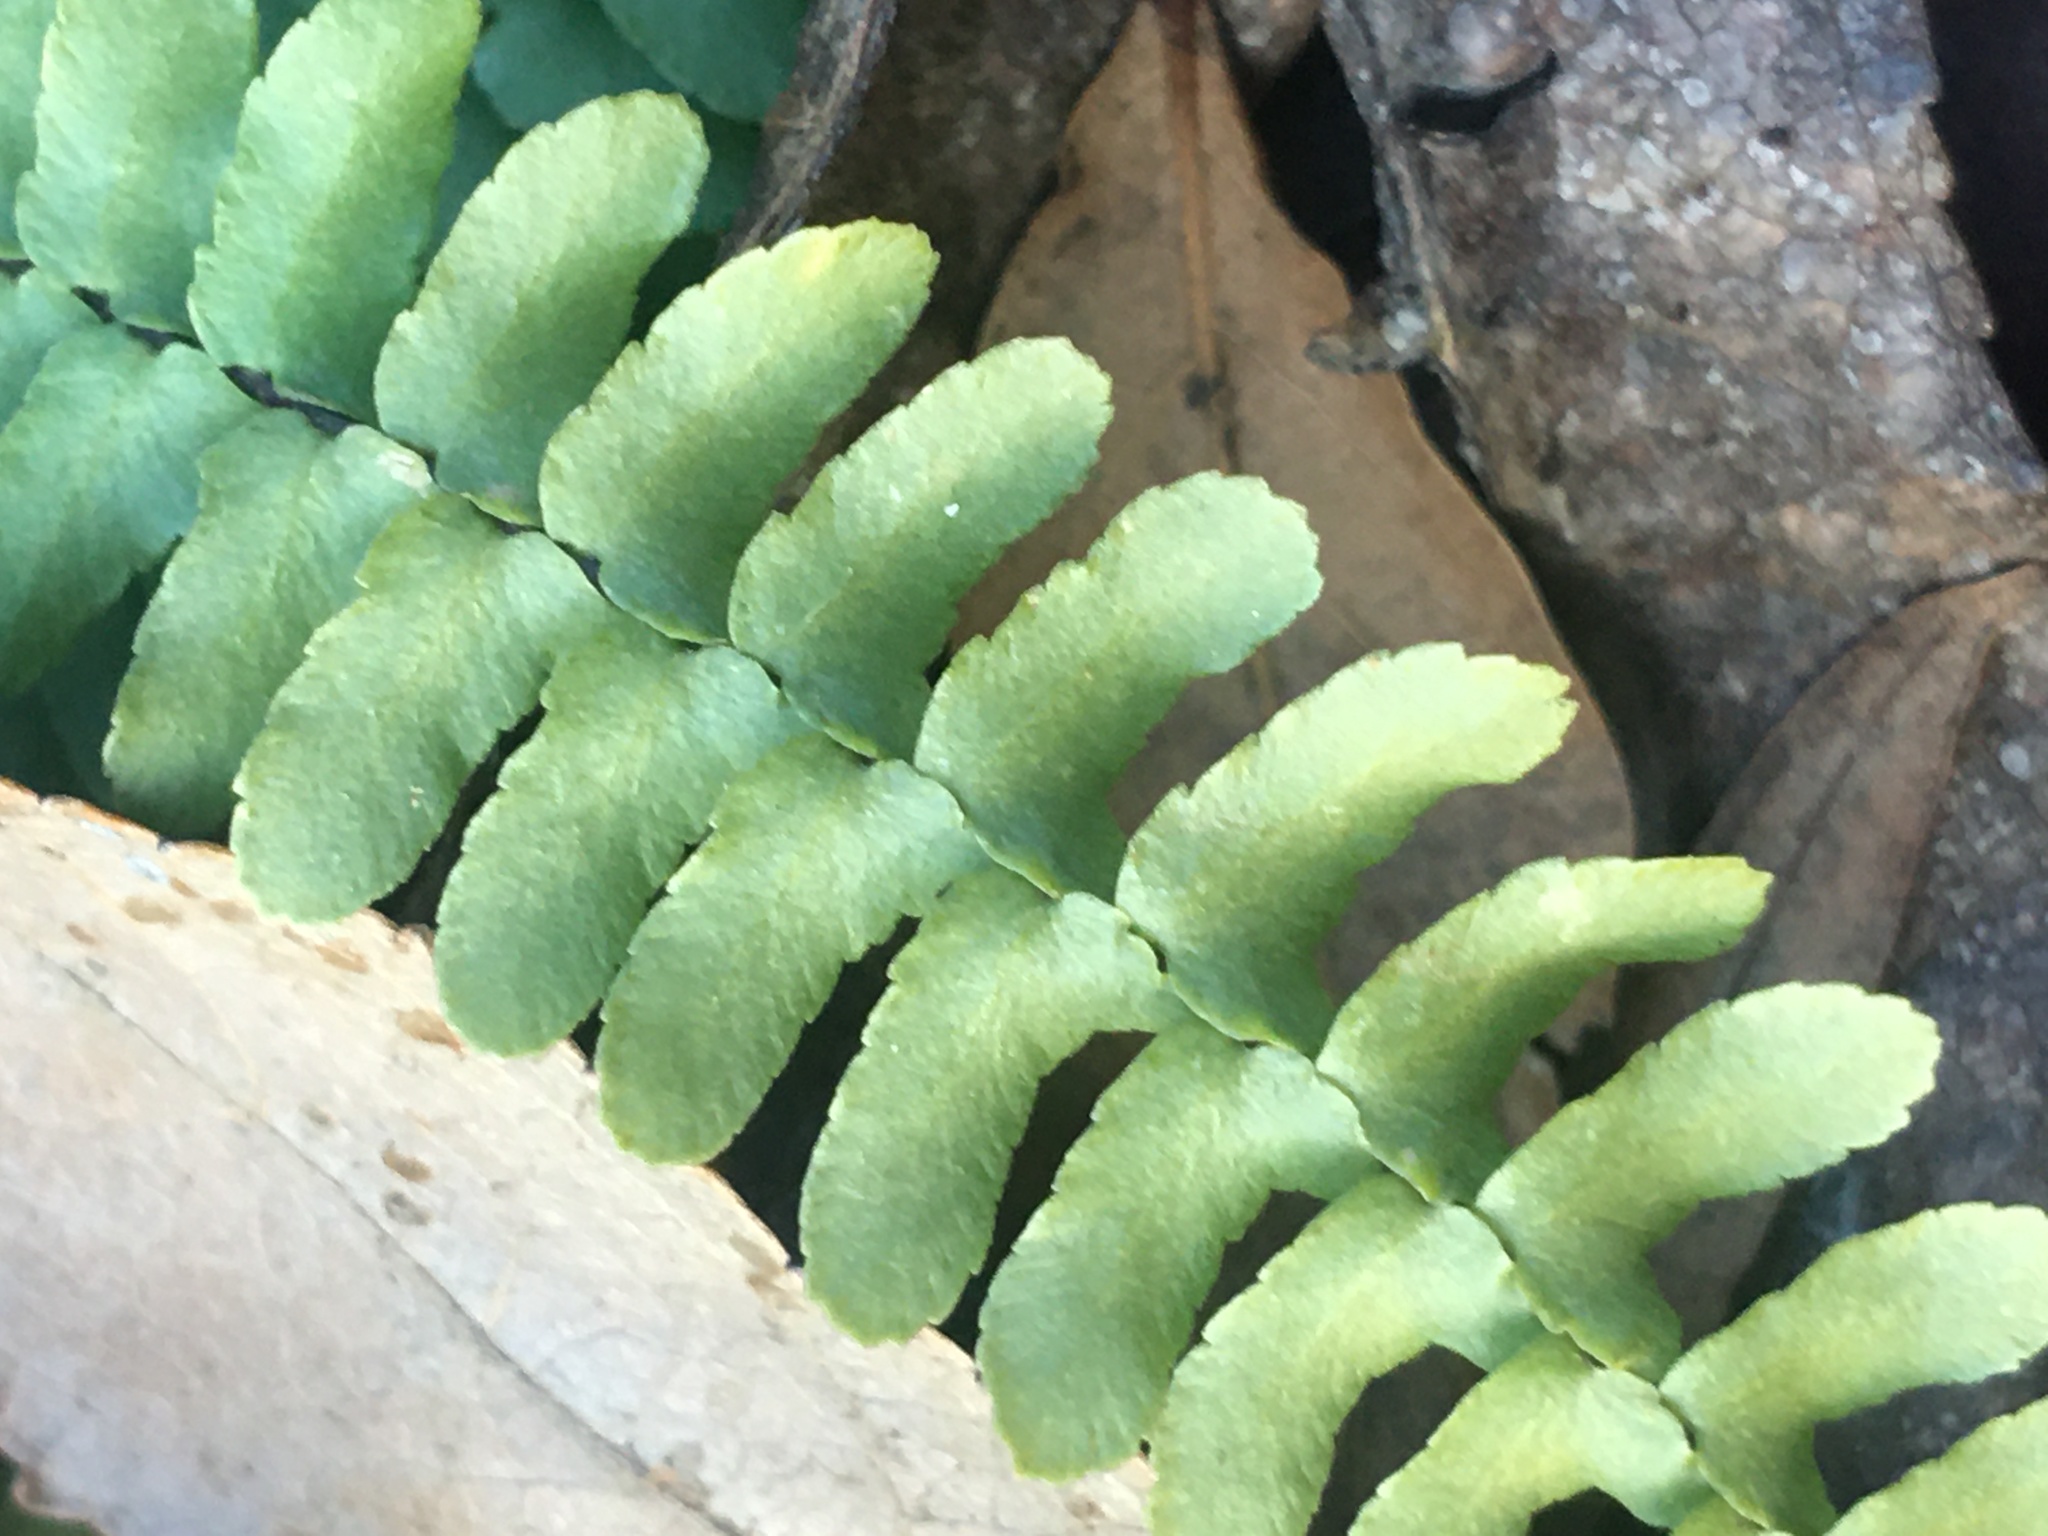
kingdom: Plantae
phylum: Tracheophyta
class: Polypodiopsida
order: Polypodiales
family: Aspleniaceae
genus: Asplenium
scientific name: Asplenium platyneuron
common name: Ebony spleenwort
